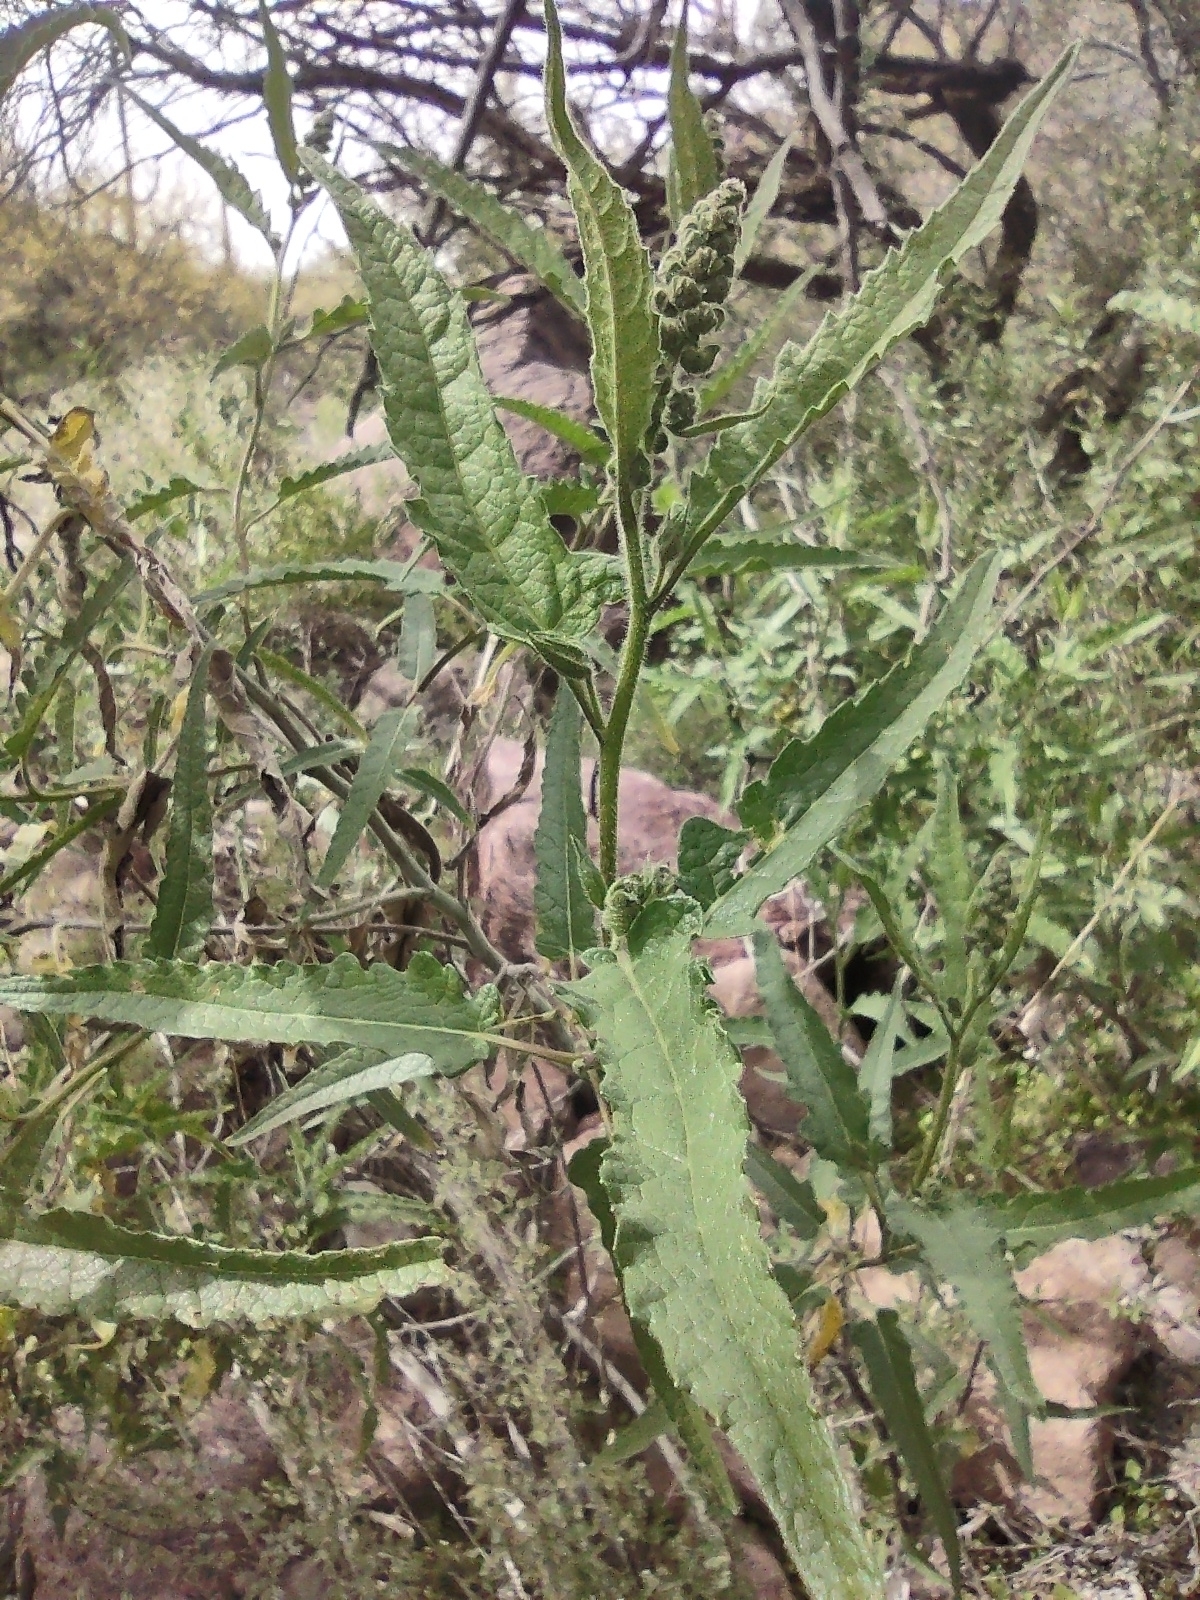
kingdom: Plantae
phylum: Tracheophyta
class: Magnoliopsida
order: Asterales
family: Asteraceae
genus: Ambrosia
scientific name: Ambrosia ambrosioides
